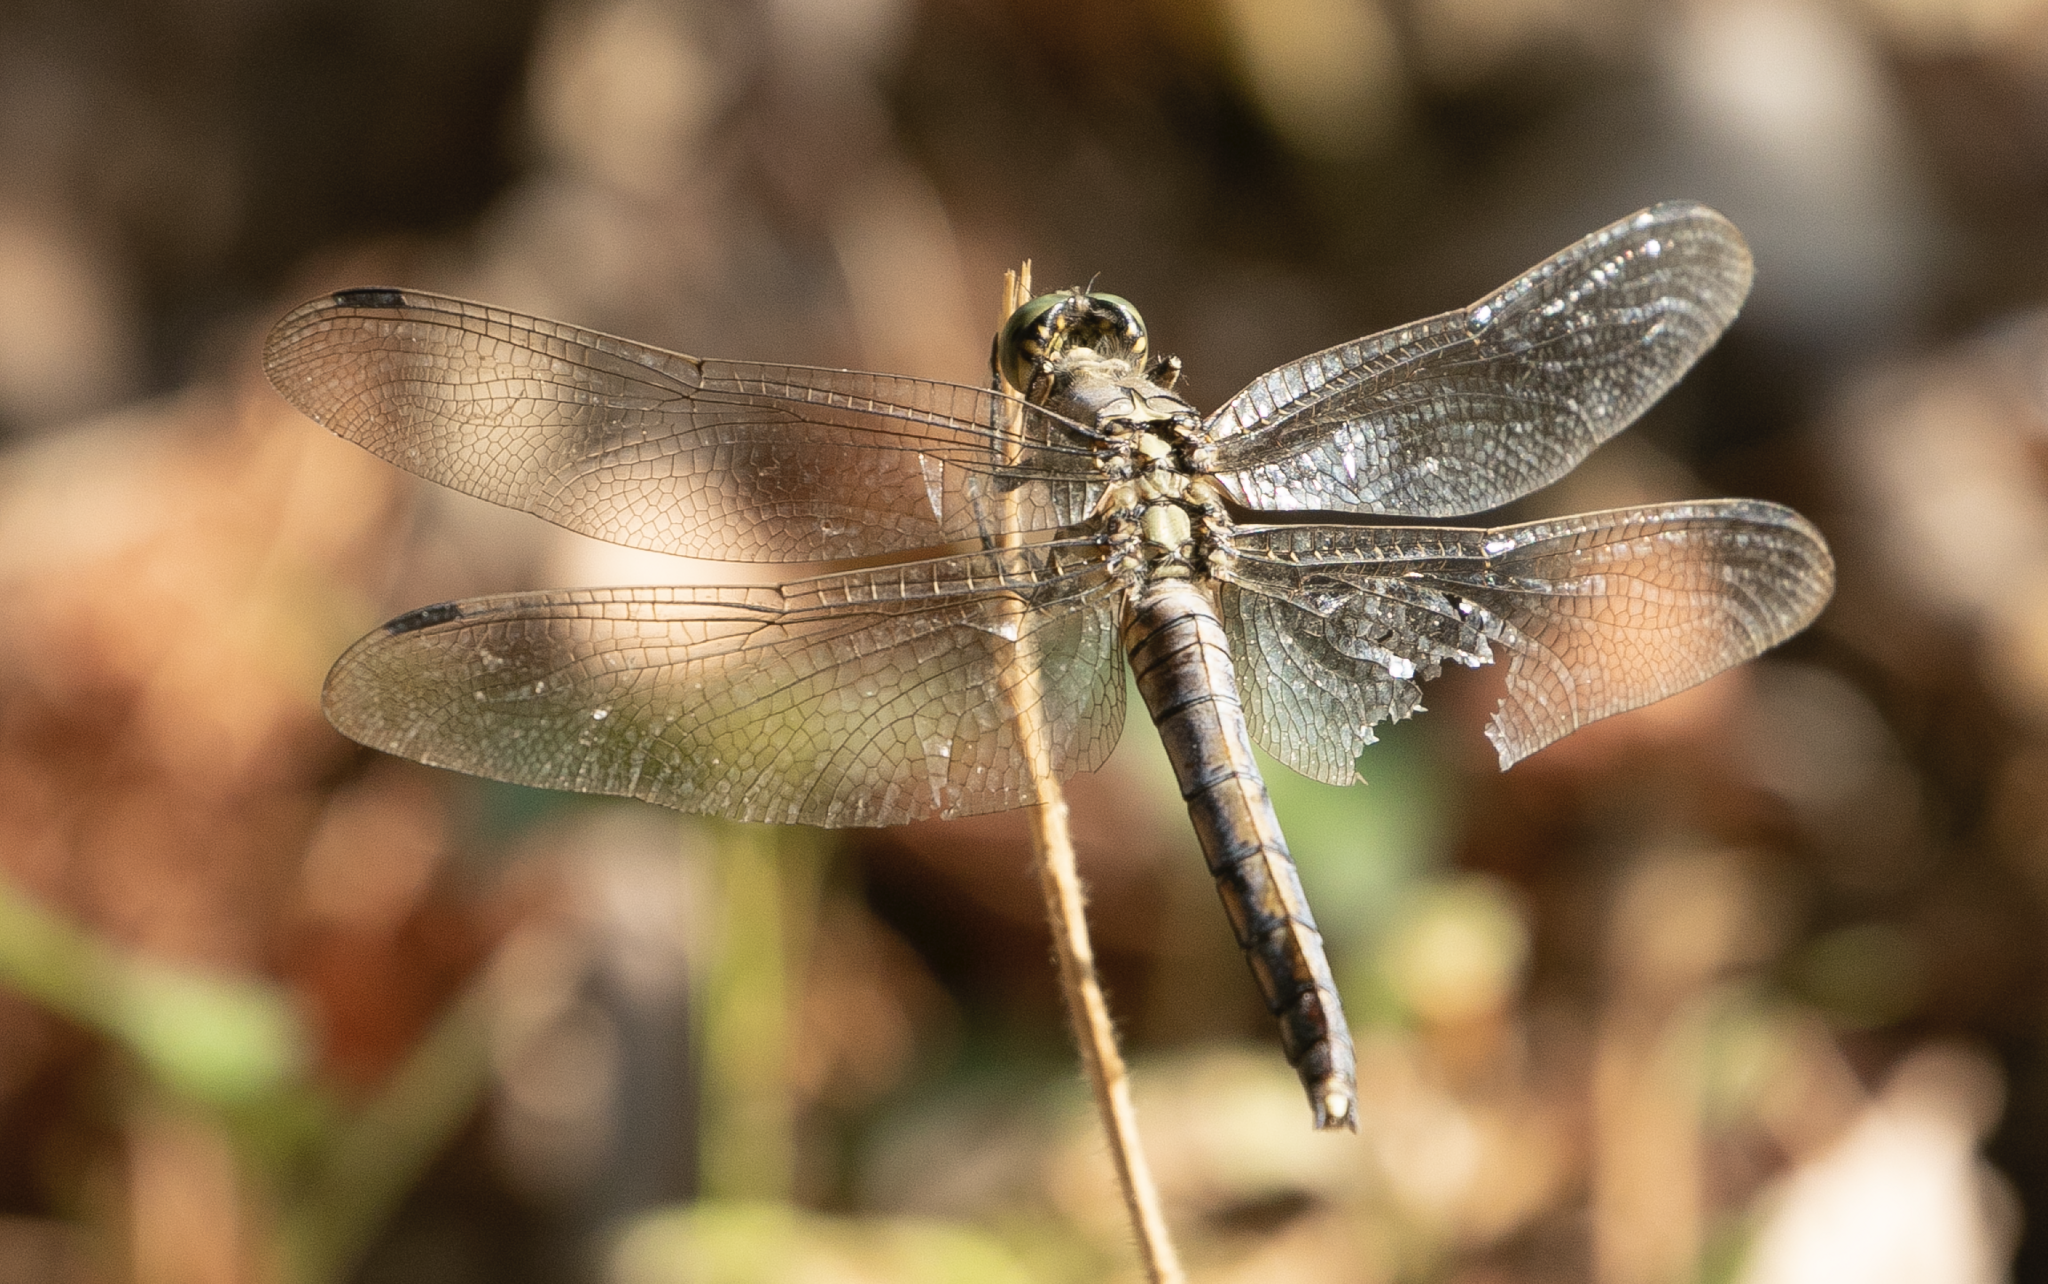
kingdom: Animalia
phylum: Arthropoda
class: Insecta
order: Odonata
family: Libellulidae
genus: Orthetrum
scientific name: Orthetrum cancellatum
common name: Black-tailed skimmer
